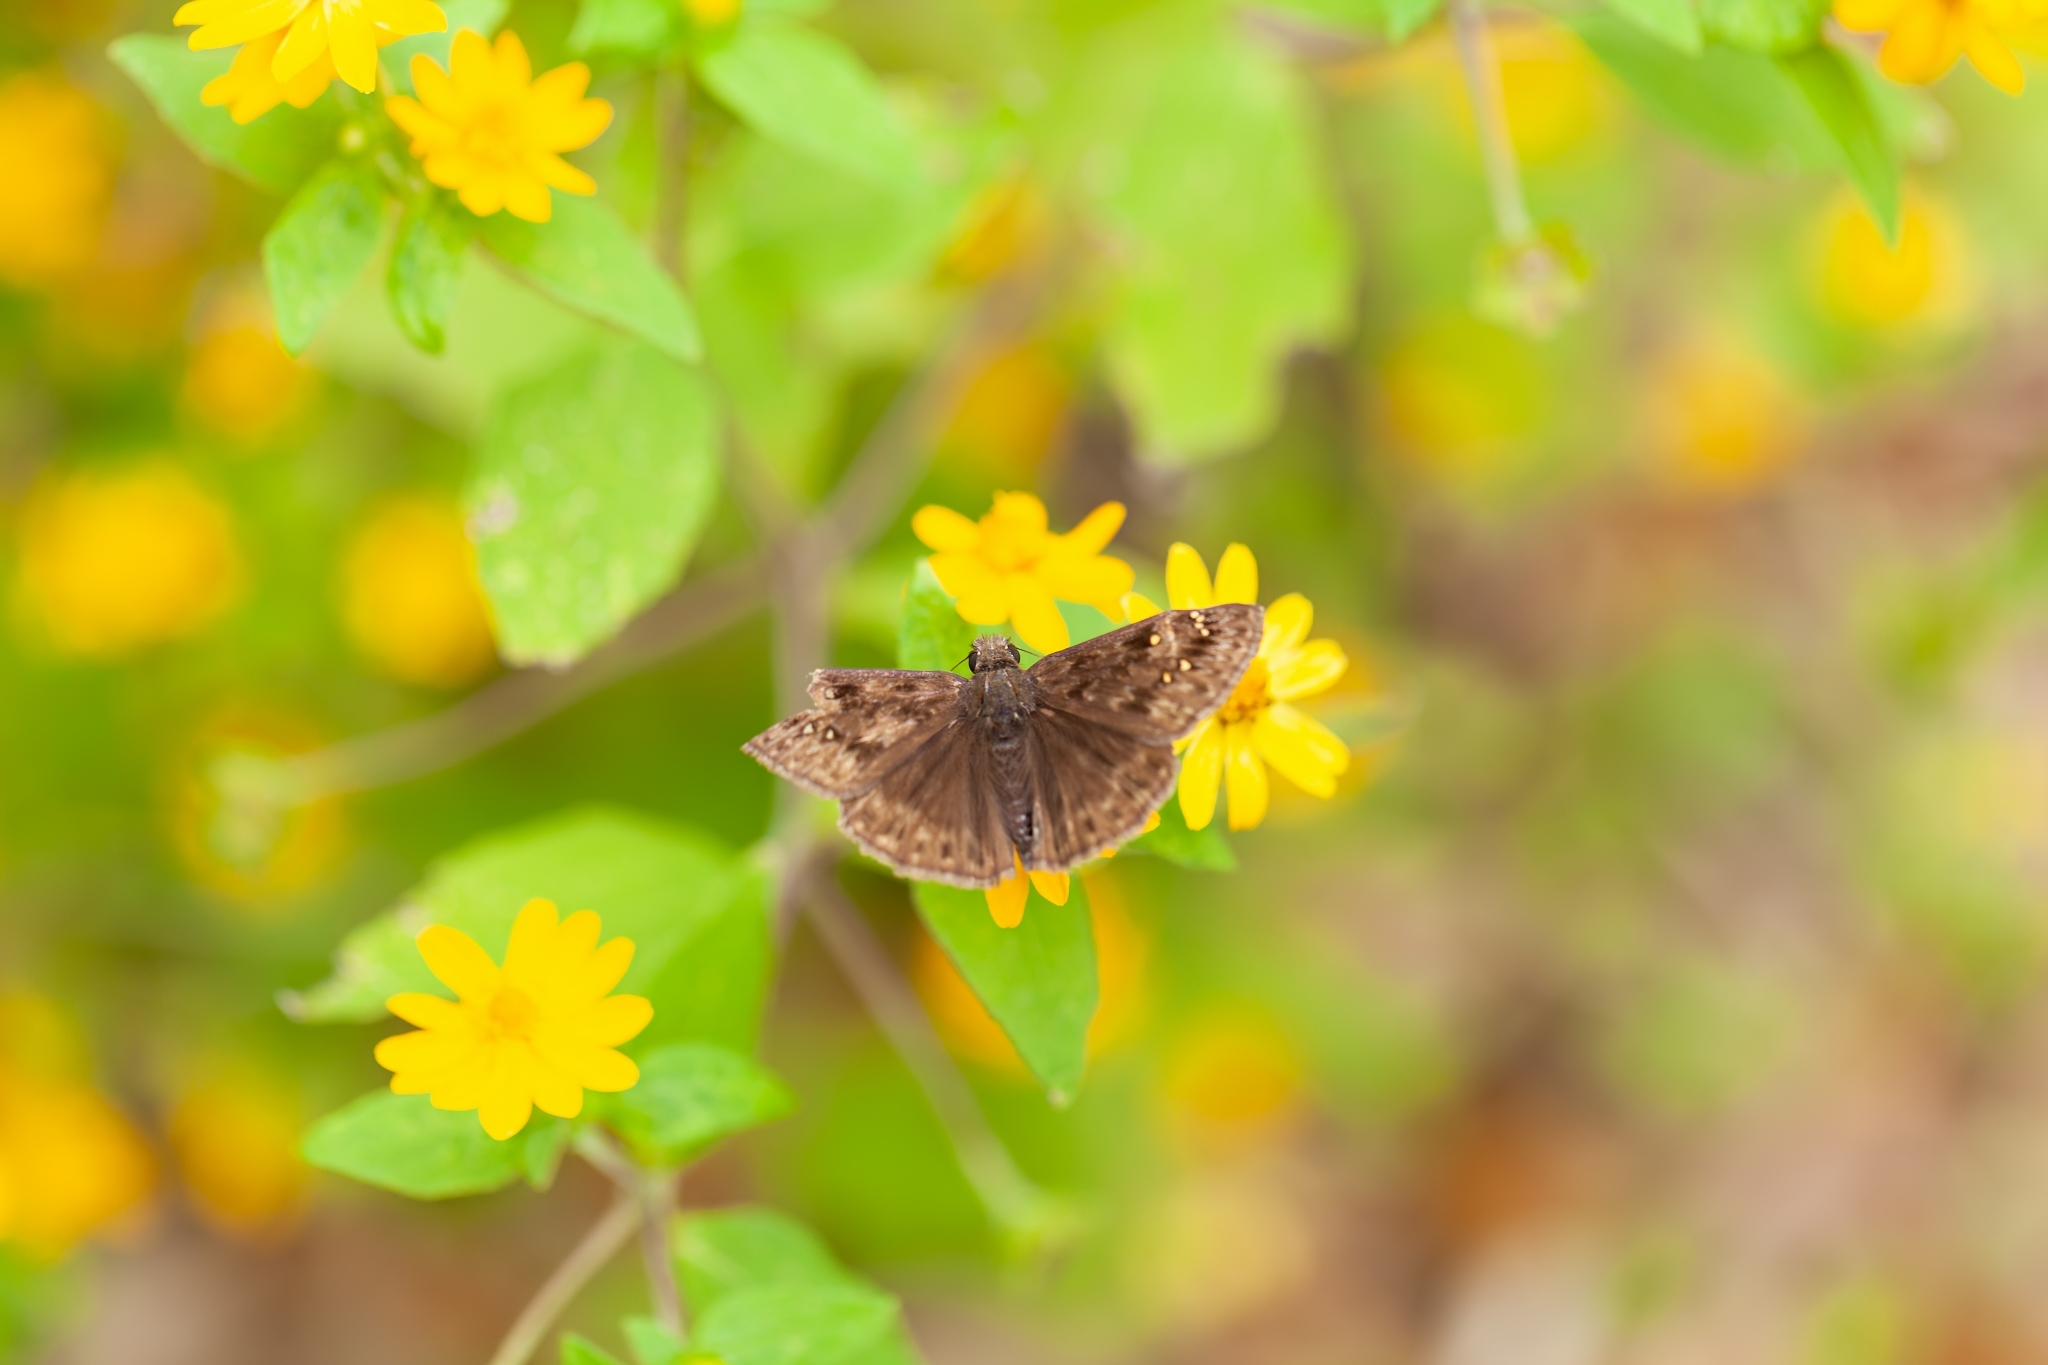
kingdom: Animalia
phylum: Arthropoda
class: Insecta
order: Lepidoptera
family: Hesperiidae
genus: Erynnis
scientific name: Erynnis horatius
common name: Horace's duskywing
